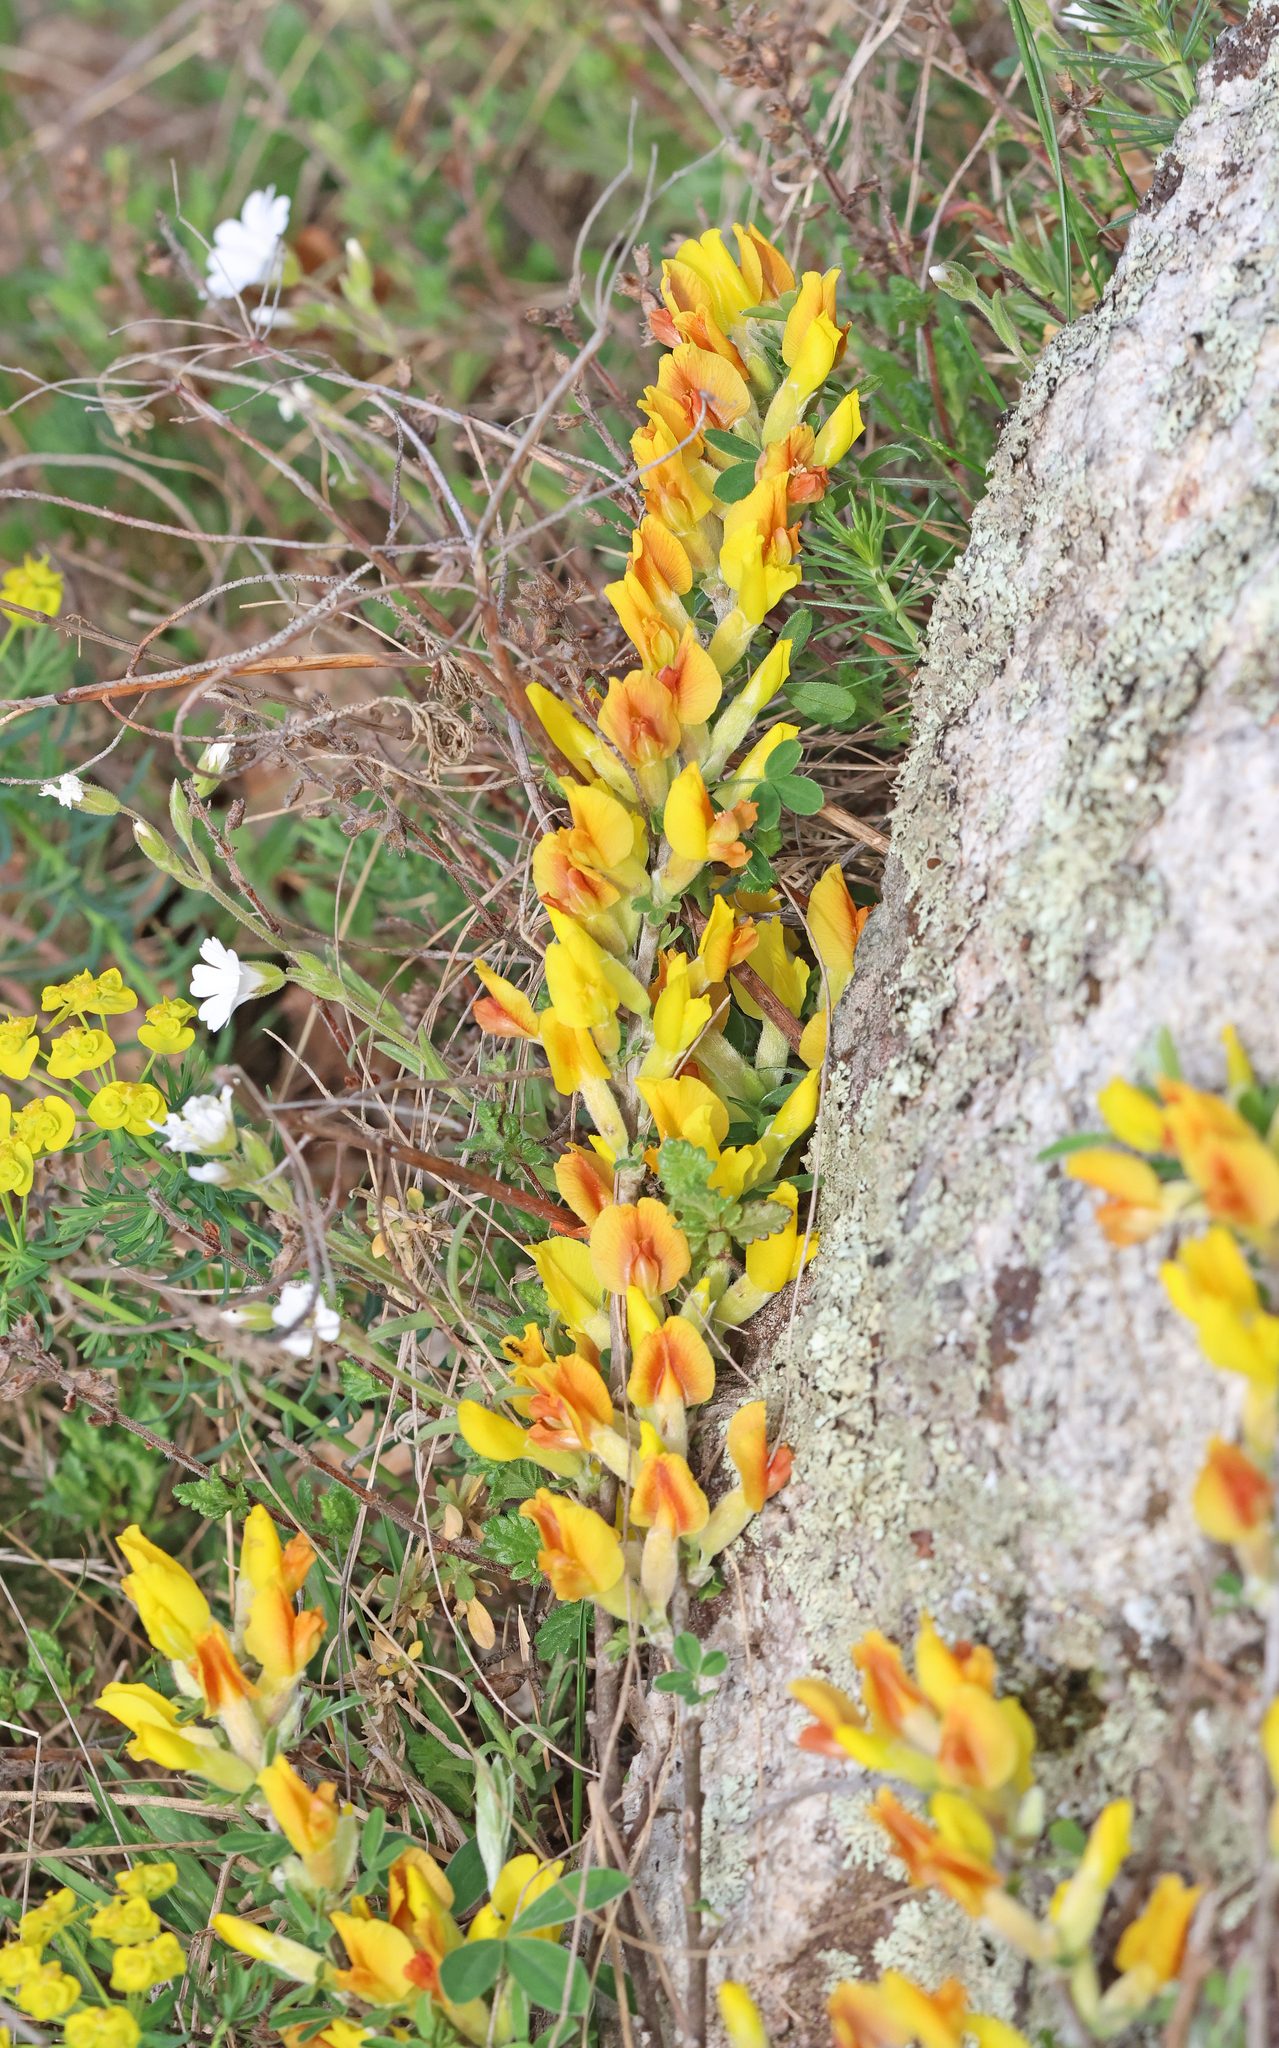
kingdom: Plantae
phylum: Tracheophyta
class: Magnoliopsida
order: Fabales
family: Fabaceae
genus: Chamaecytisus
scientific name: Chamaecytisus ratisbonensis
